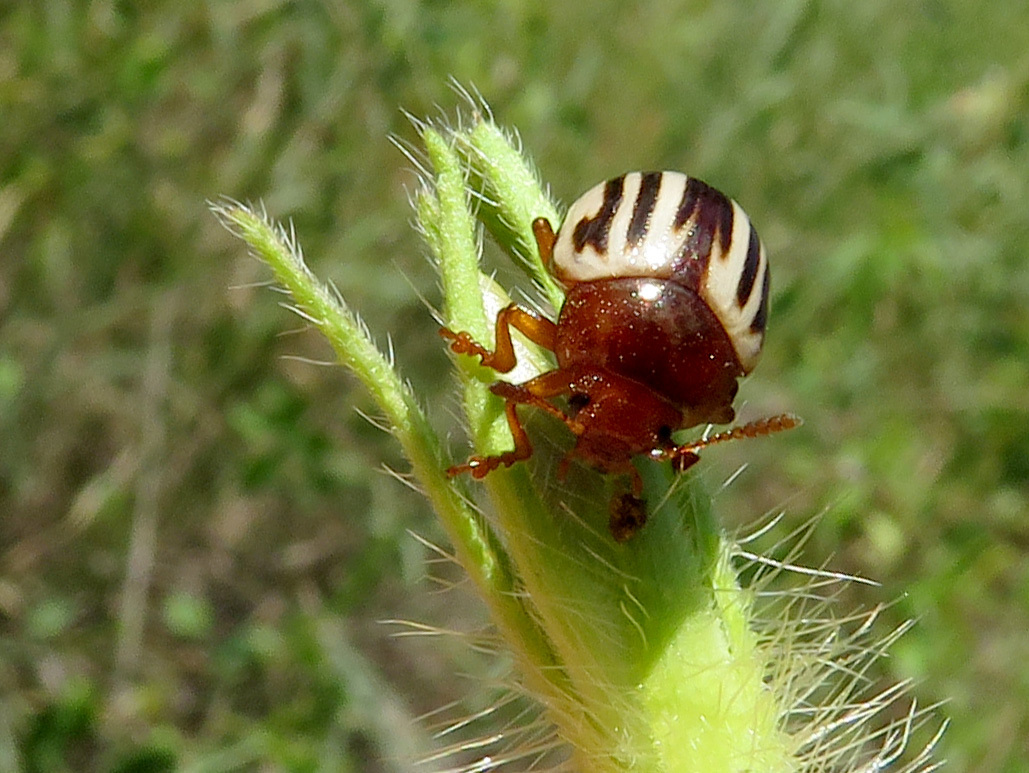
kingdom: Animalia
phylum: Arthropoda
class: Insecta
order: Coleoptera
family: Chrysomelidae
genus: Leptinotarsa
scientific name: Leptinotarsa peninsularis
